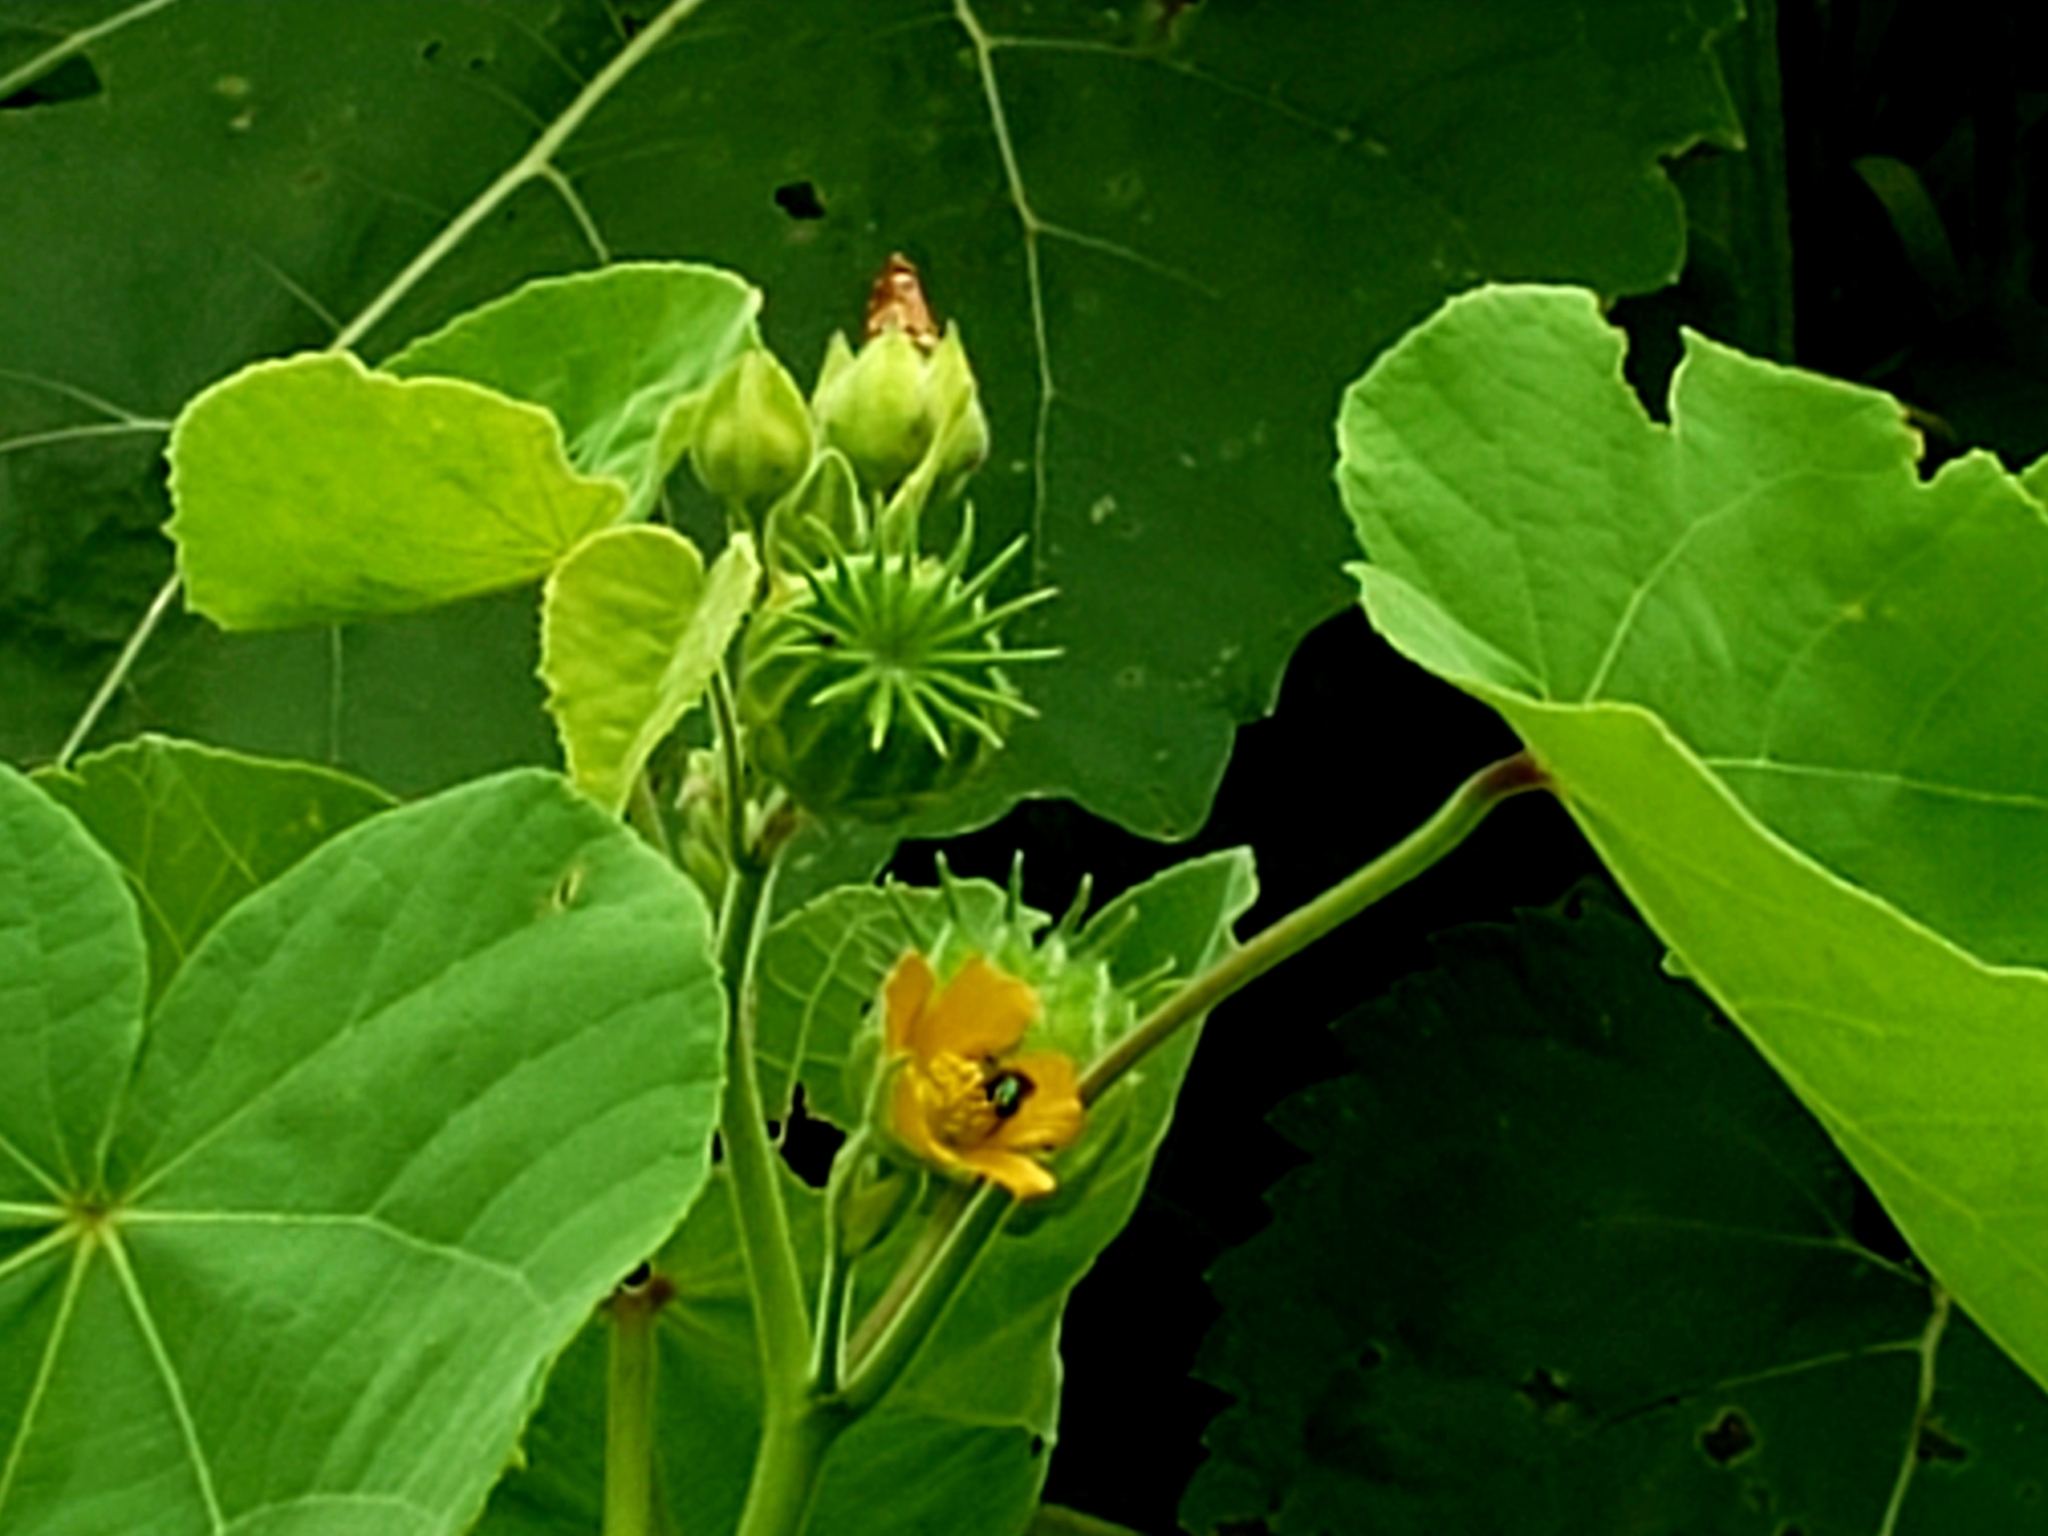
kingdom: Plantae
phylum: Tracheophyta
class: Magnoliopsida
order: Malvales
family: Malvaceae
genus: Abutilon
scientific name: Abutilon theophrasti
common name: Velvetleaf
